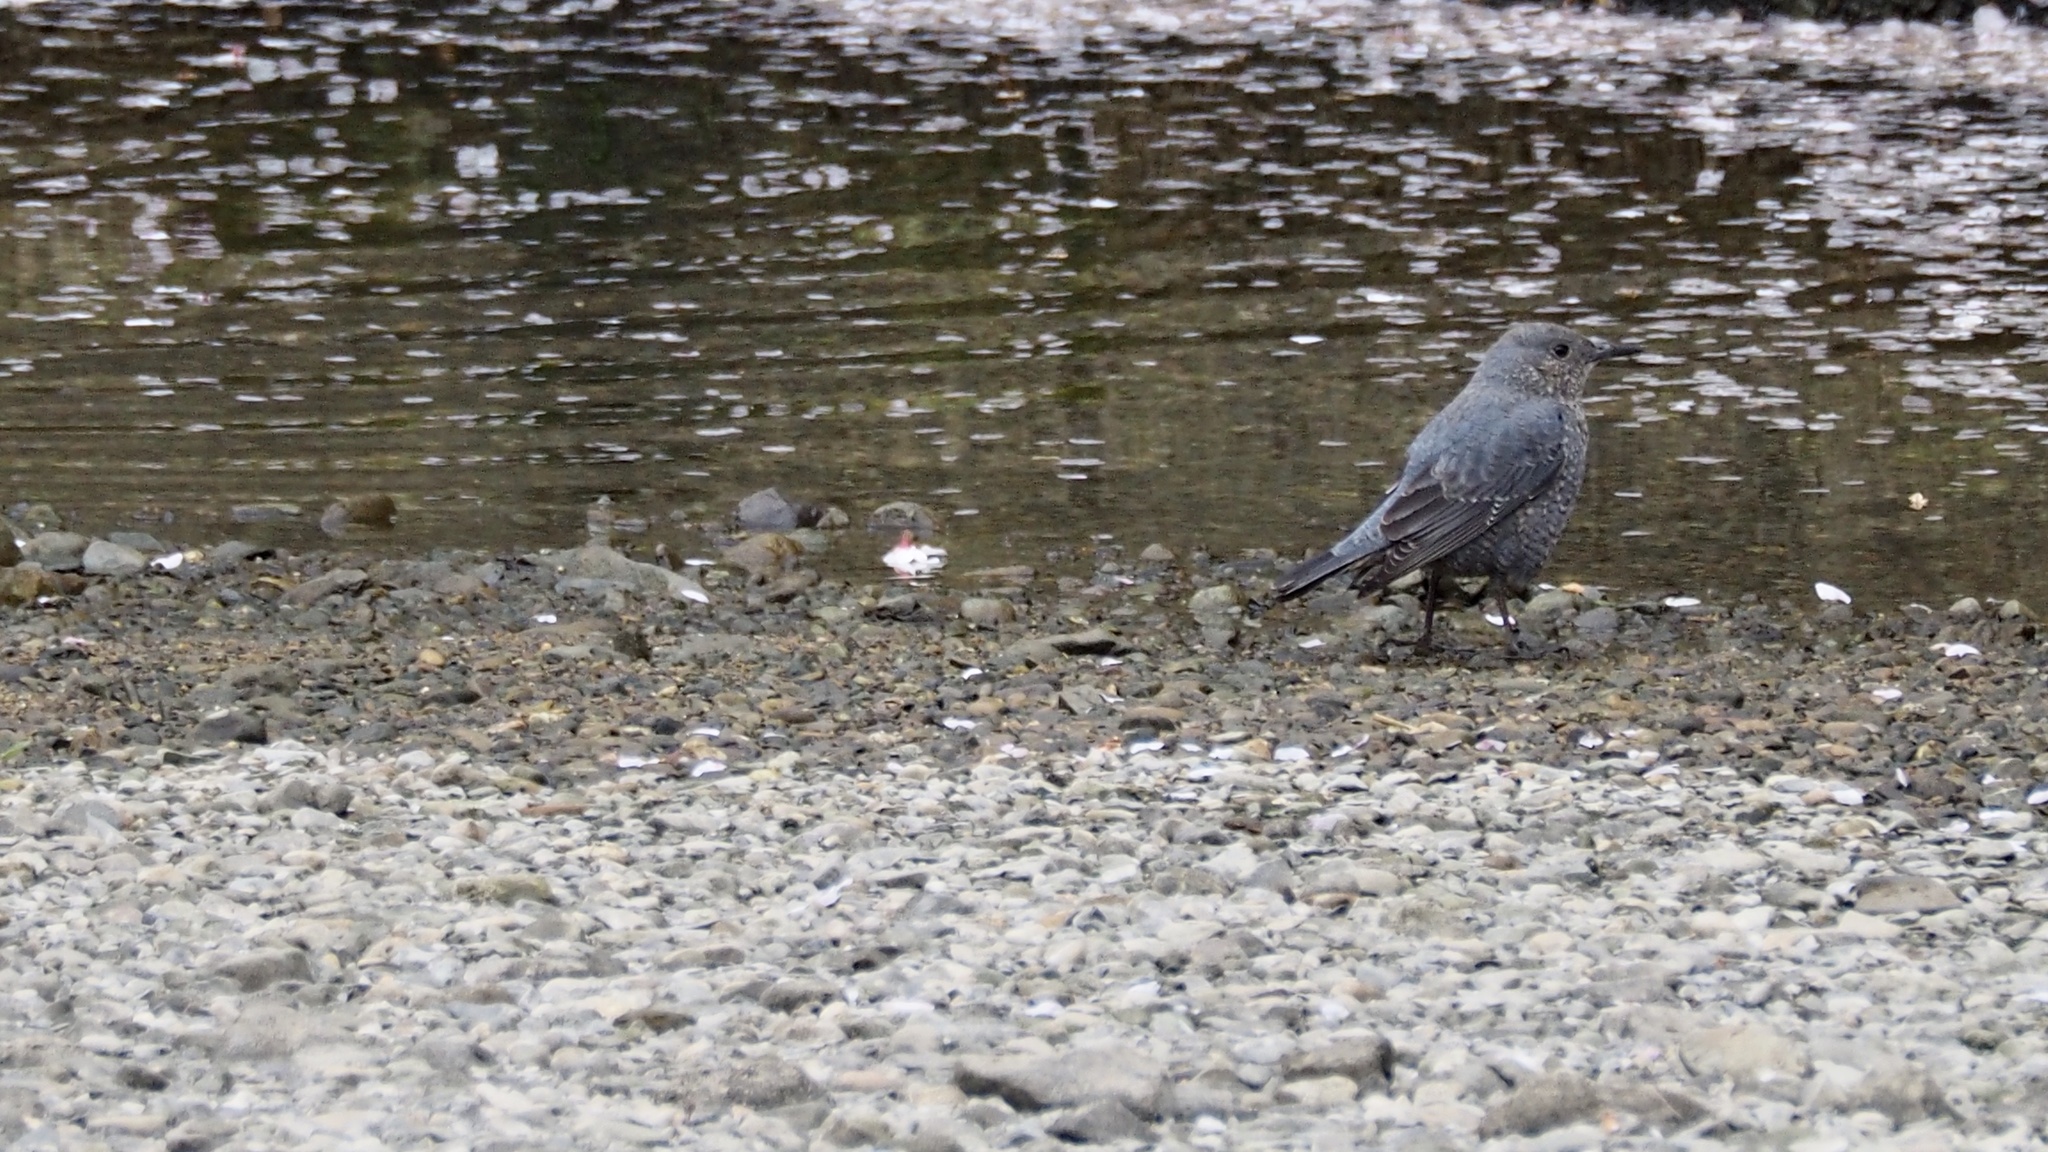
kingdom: Animalia
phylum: Chordata
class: Aves
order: Passeriformes
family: Muscicapidae
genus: Monticola
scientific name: Monticola solitarius
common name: Blue rock thrush
